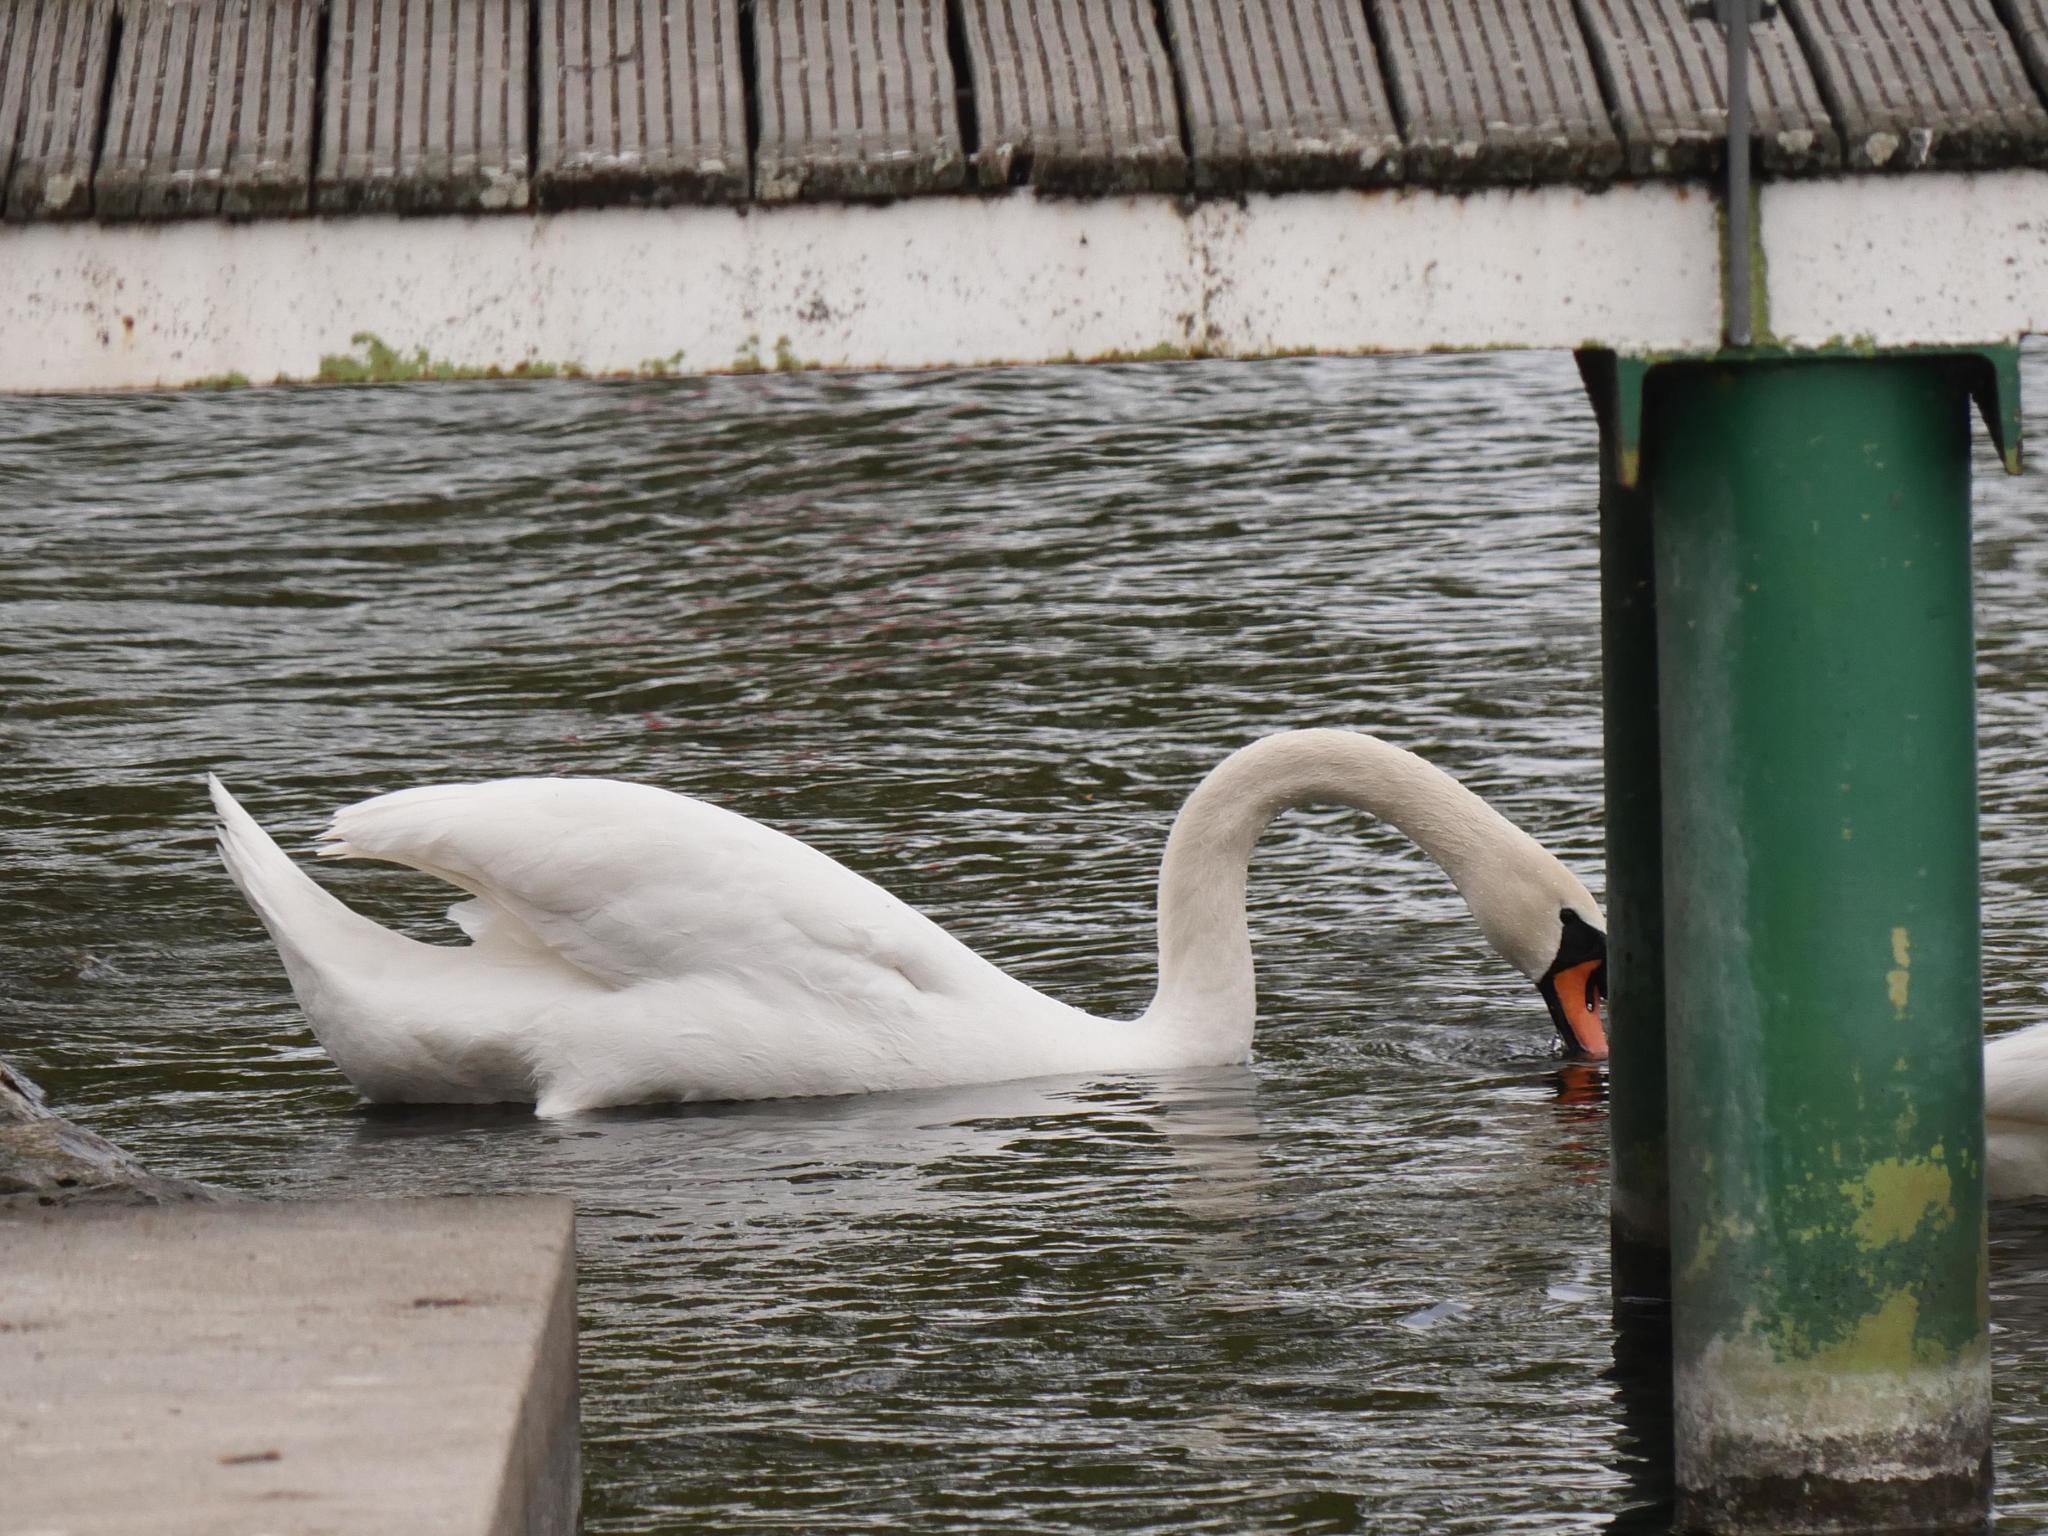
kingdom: Animalia
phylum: Chordata
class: Aves
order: Anseriformes
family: Anatidae
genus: Cygnus
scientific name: Cygnus olor
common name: Mute swan
